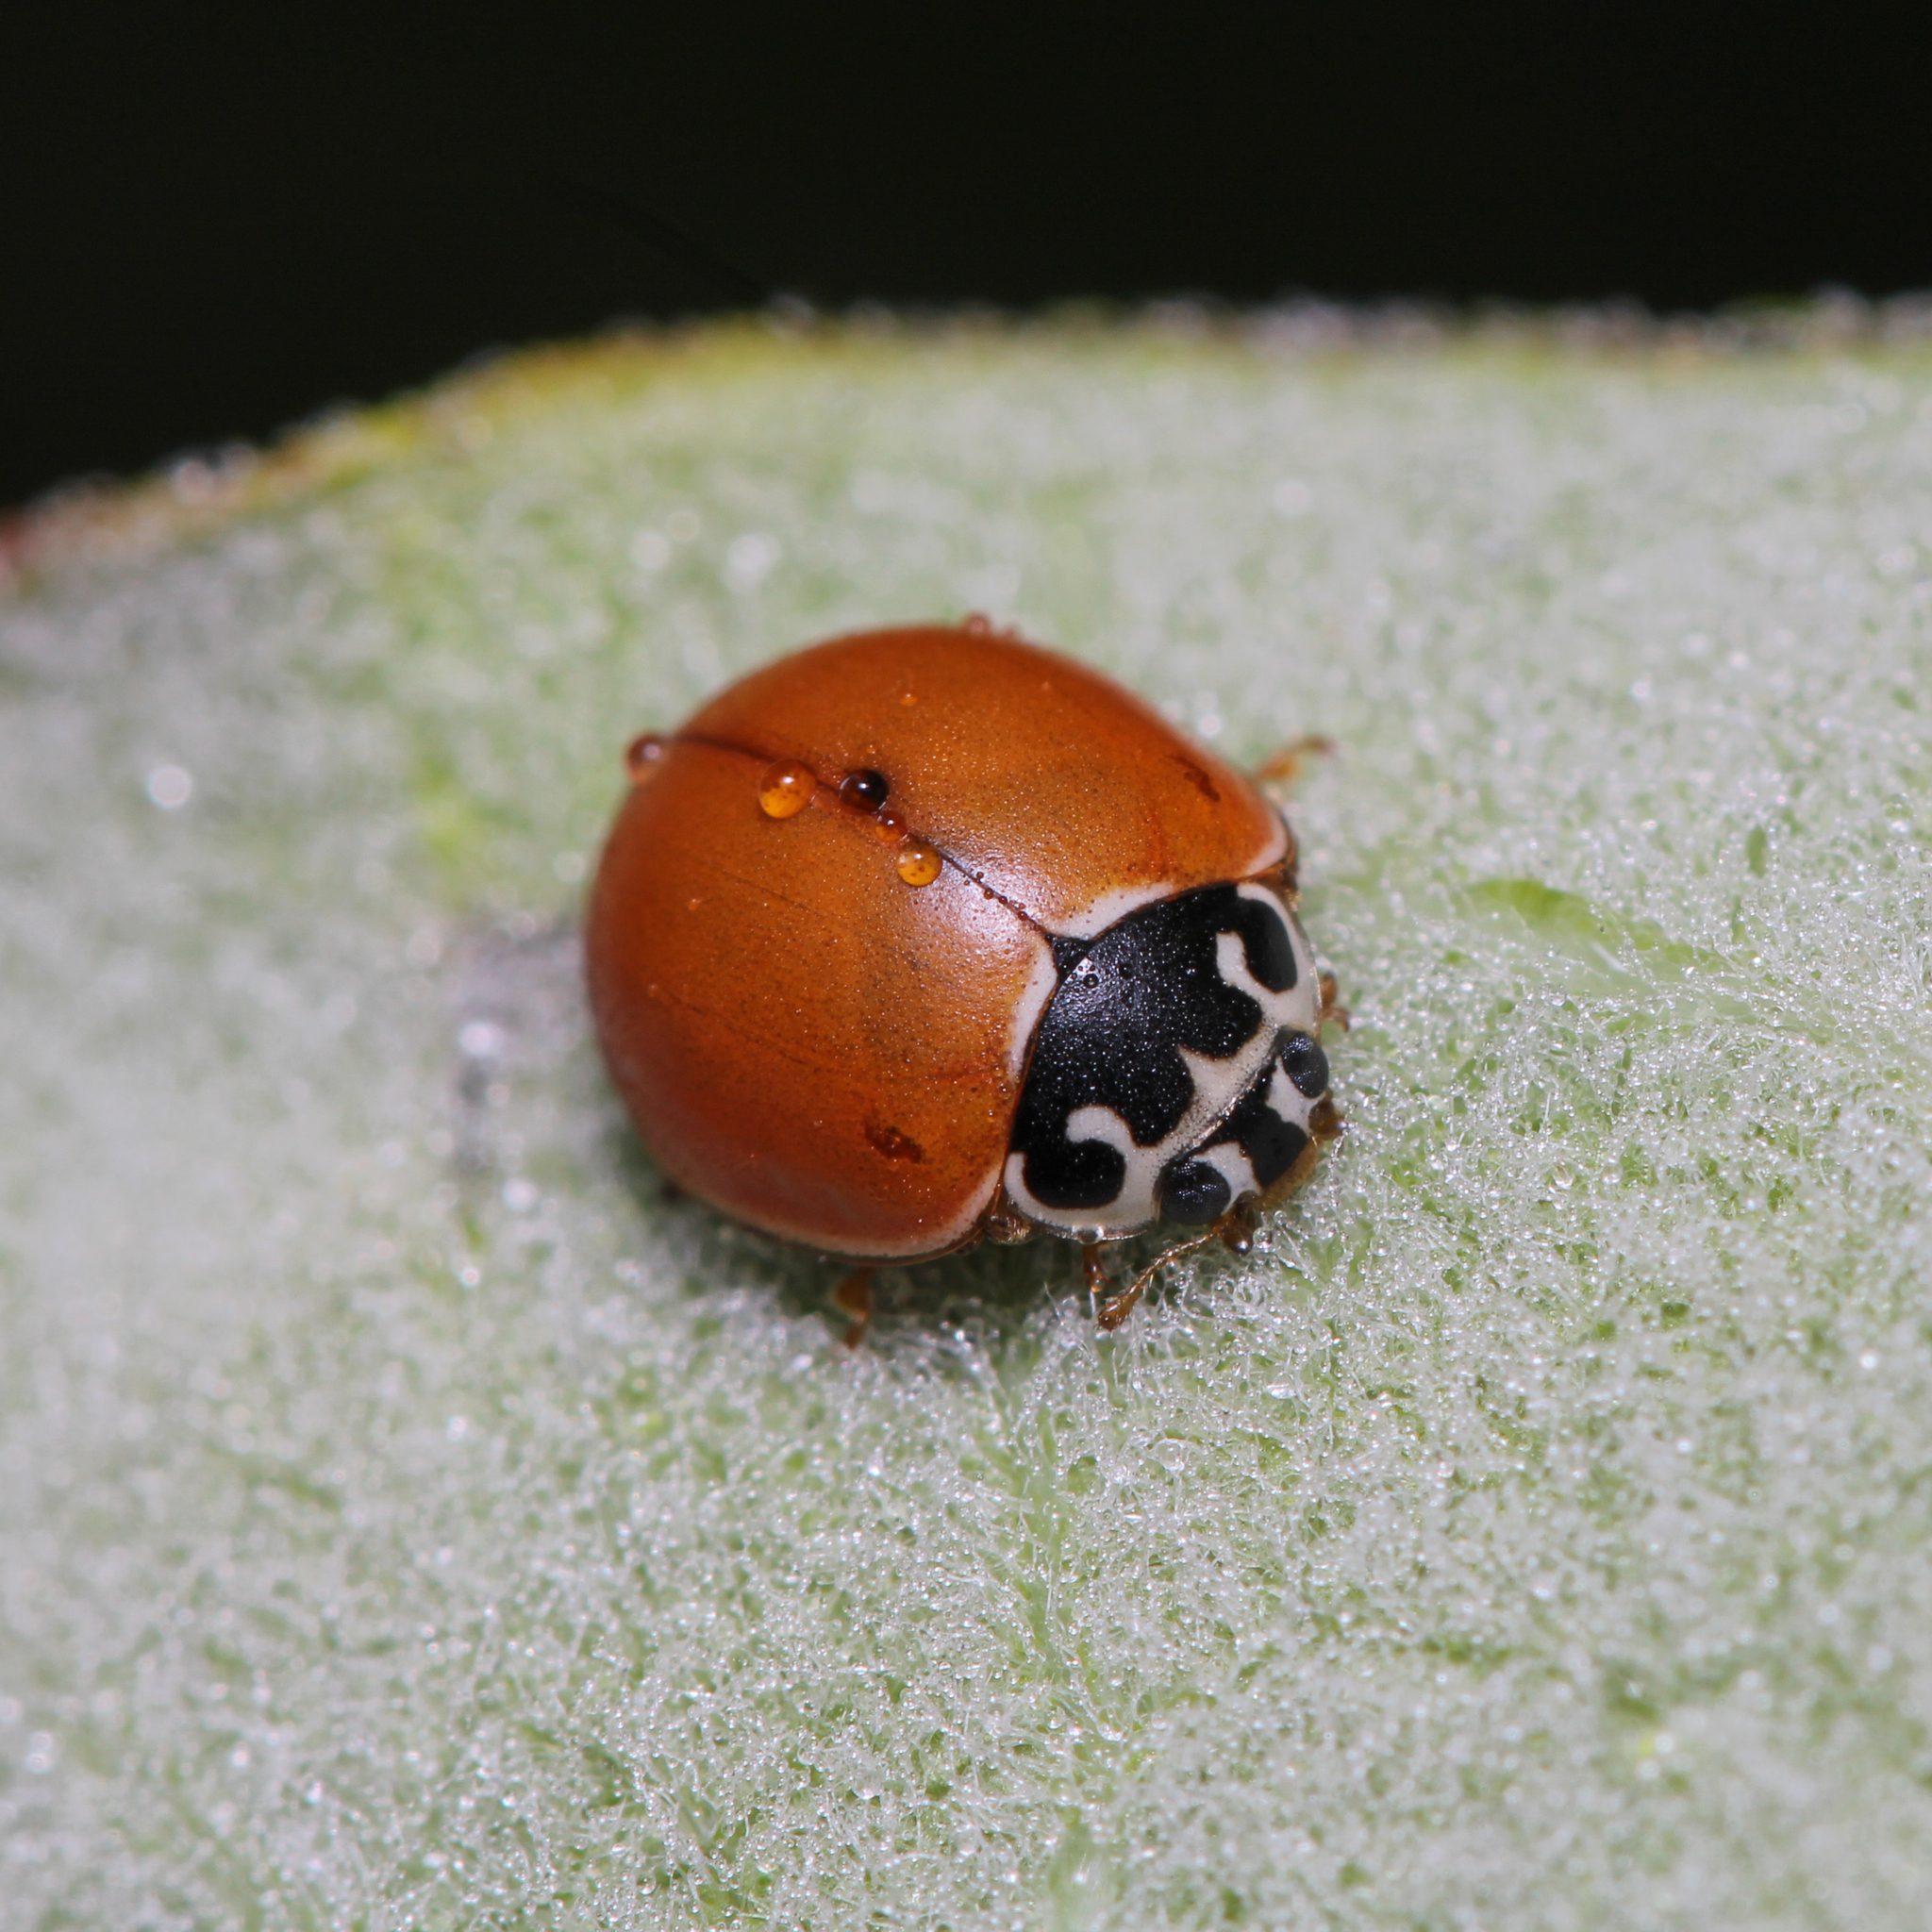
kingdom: Animalia
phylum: Arthropoda
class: Insecta
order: Coleoptera
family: Coccinellidae
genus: Cycloneda
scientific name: Cycloneda munda
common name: Polished lady beetle
